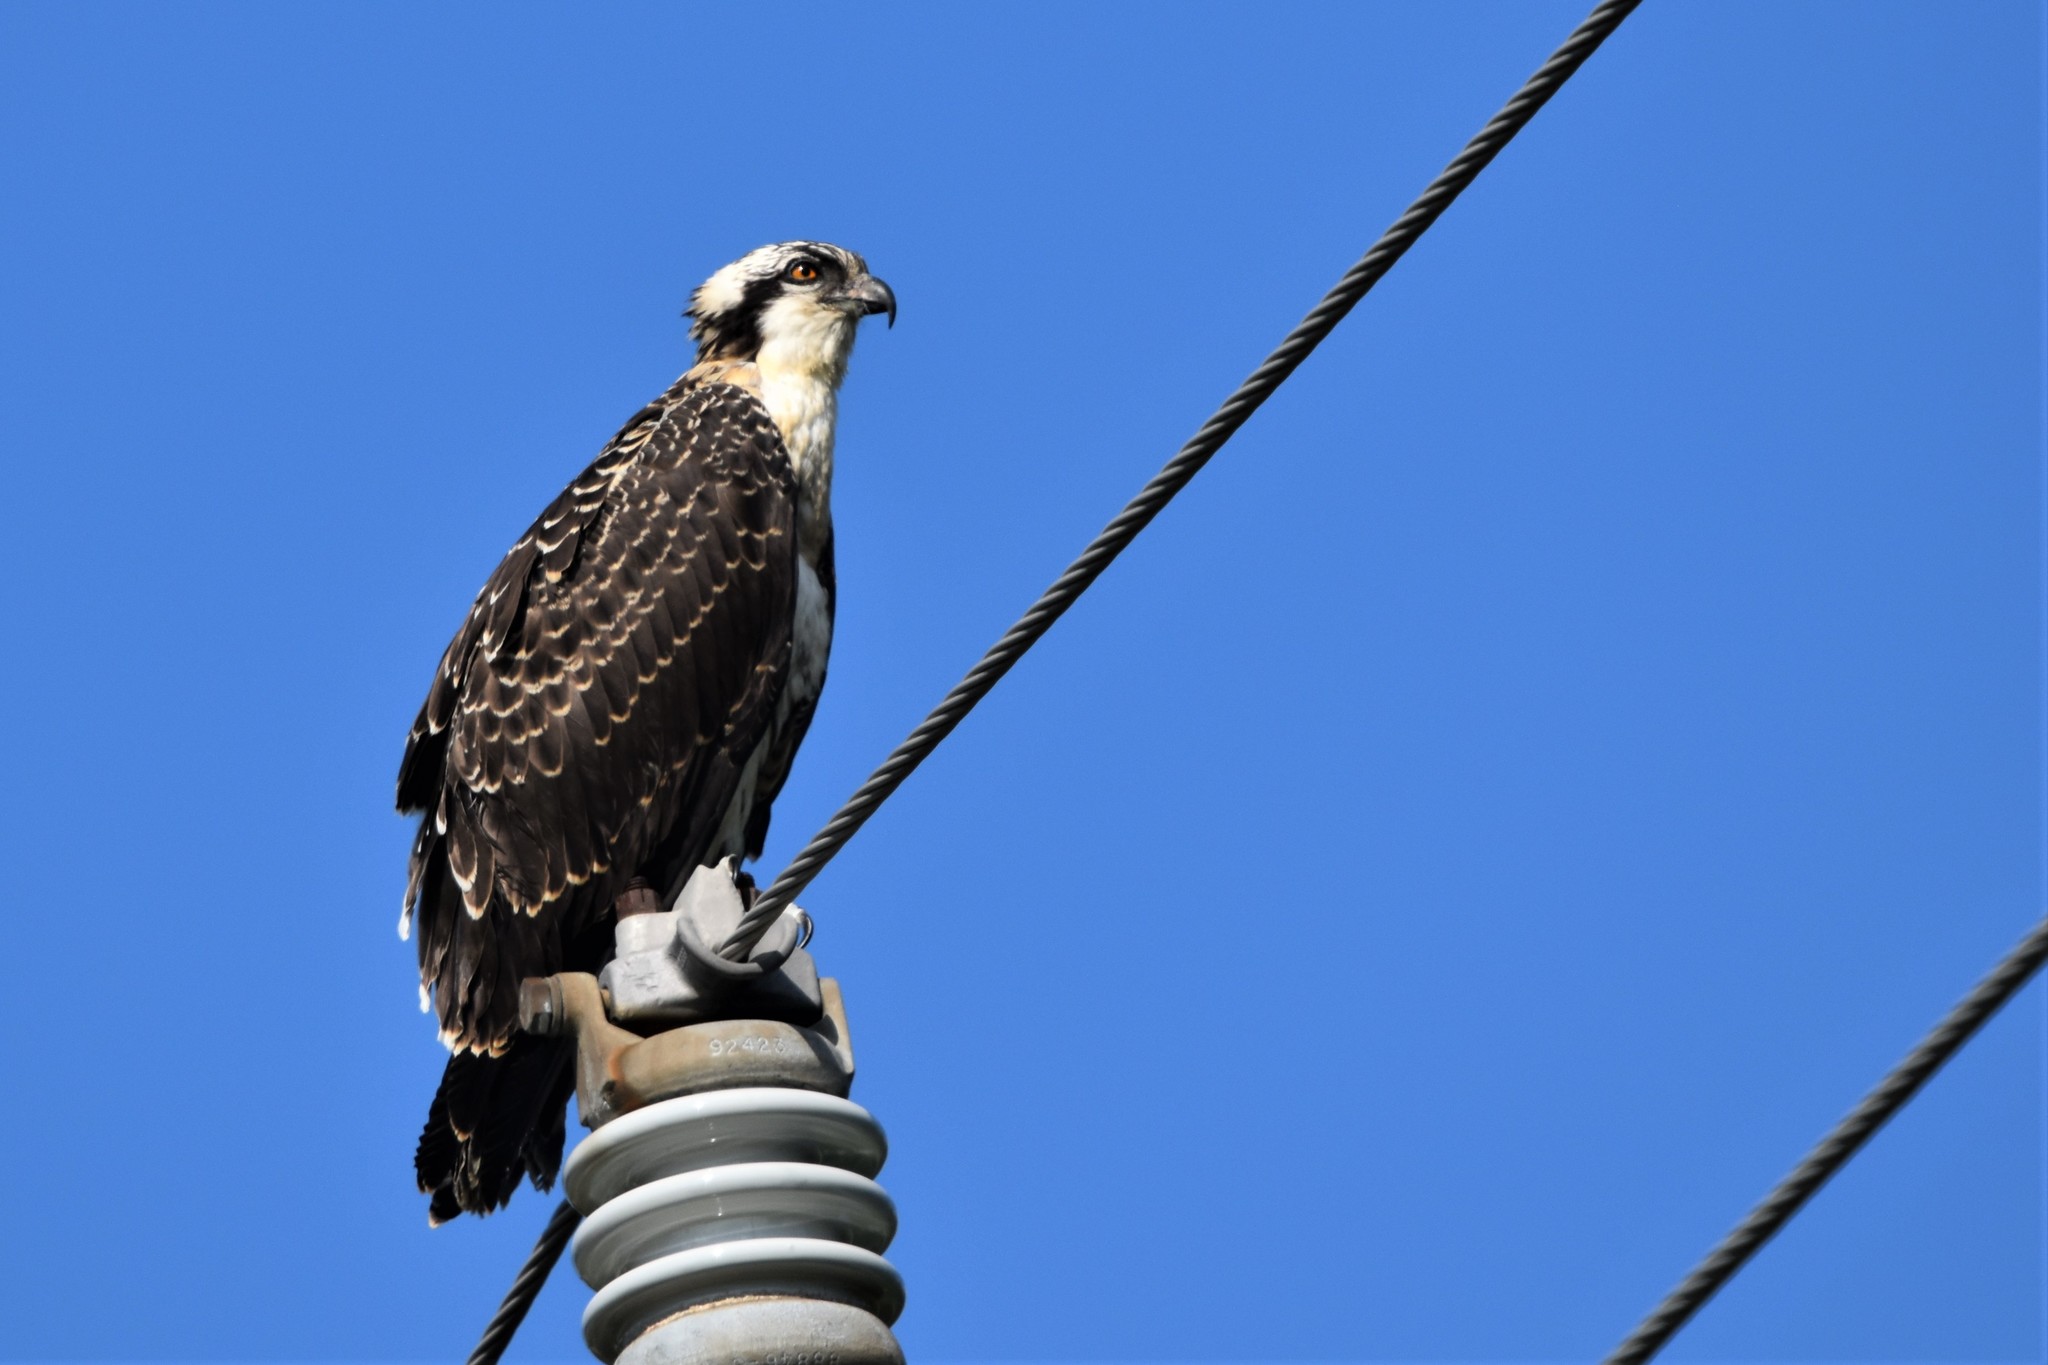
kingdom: Animalia
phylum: Chordata
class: Aves
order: Accipitriformes
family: Pandionidae
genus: Pandion
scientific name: Pandion haliaetus
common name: Osprey
